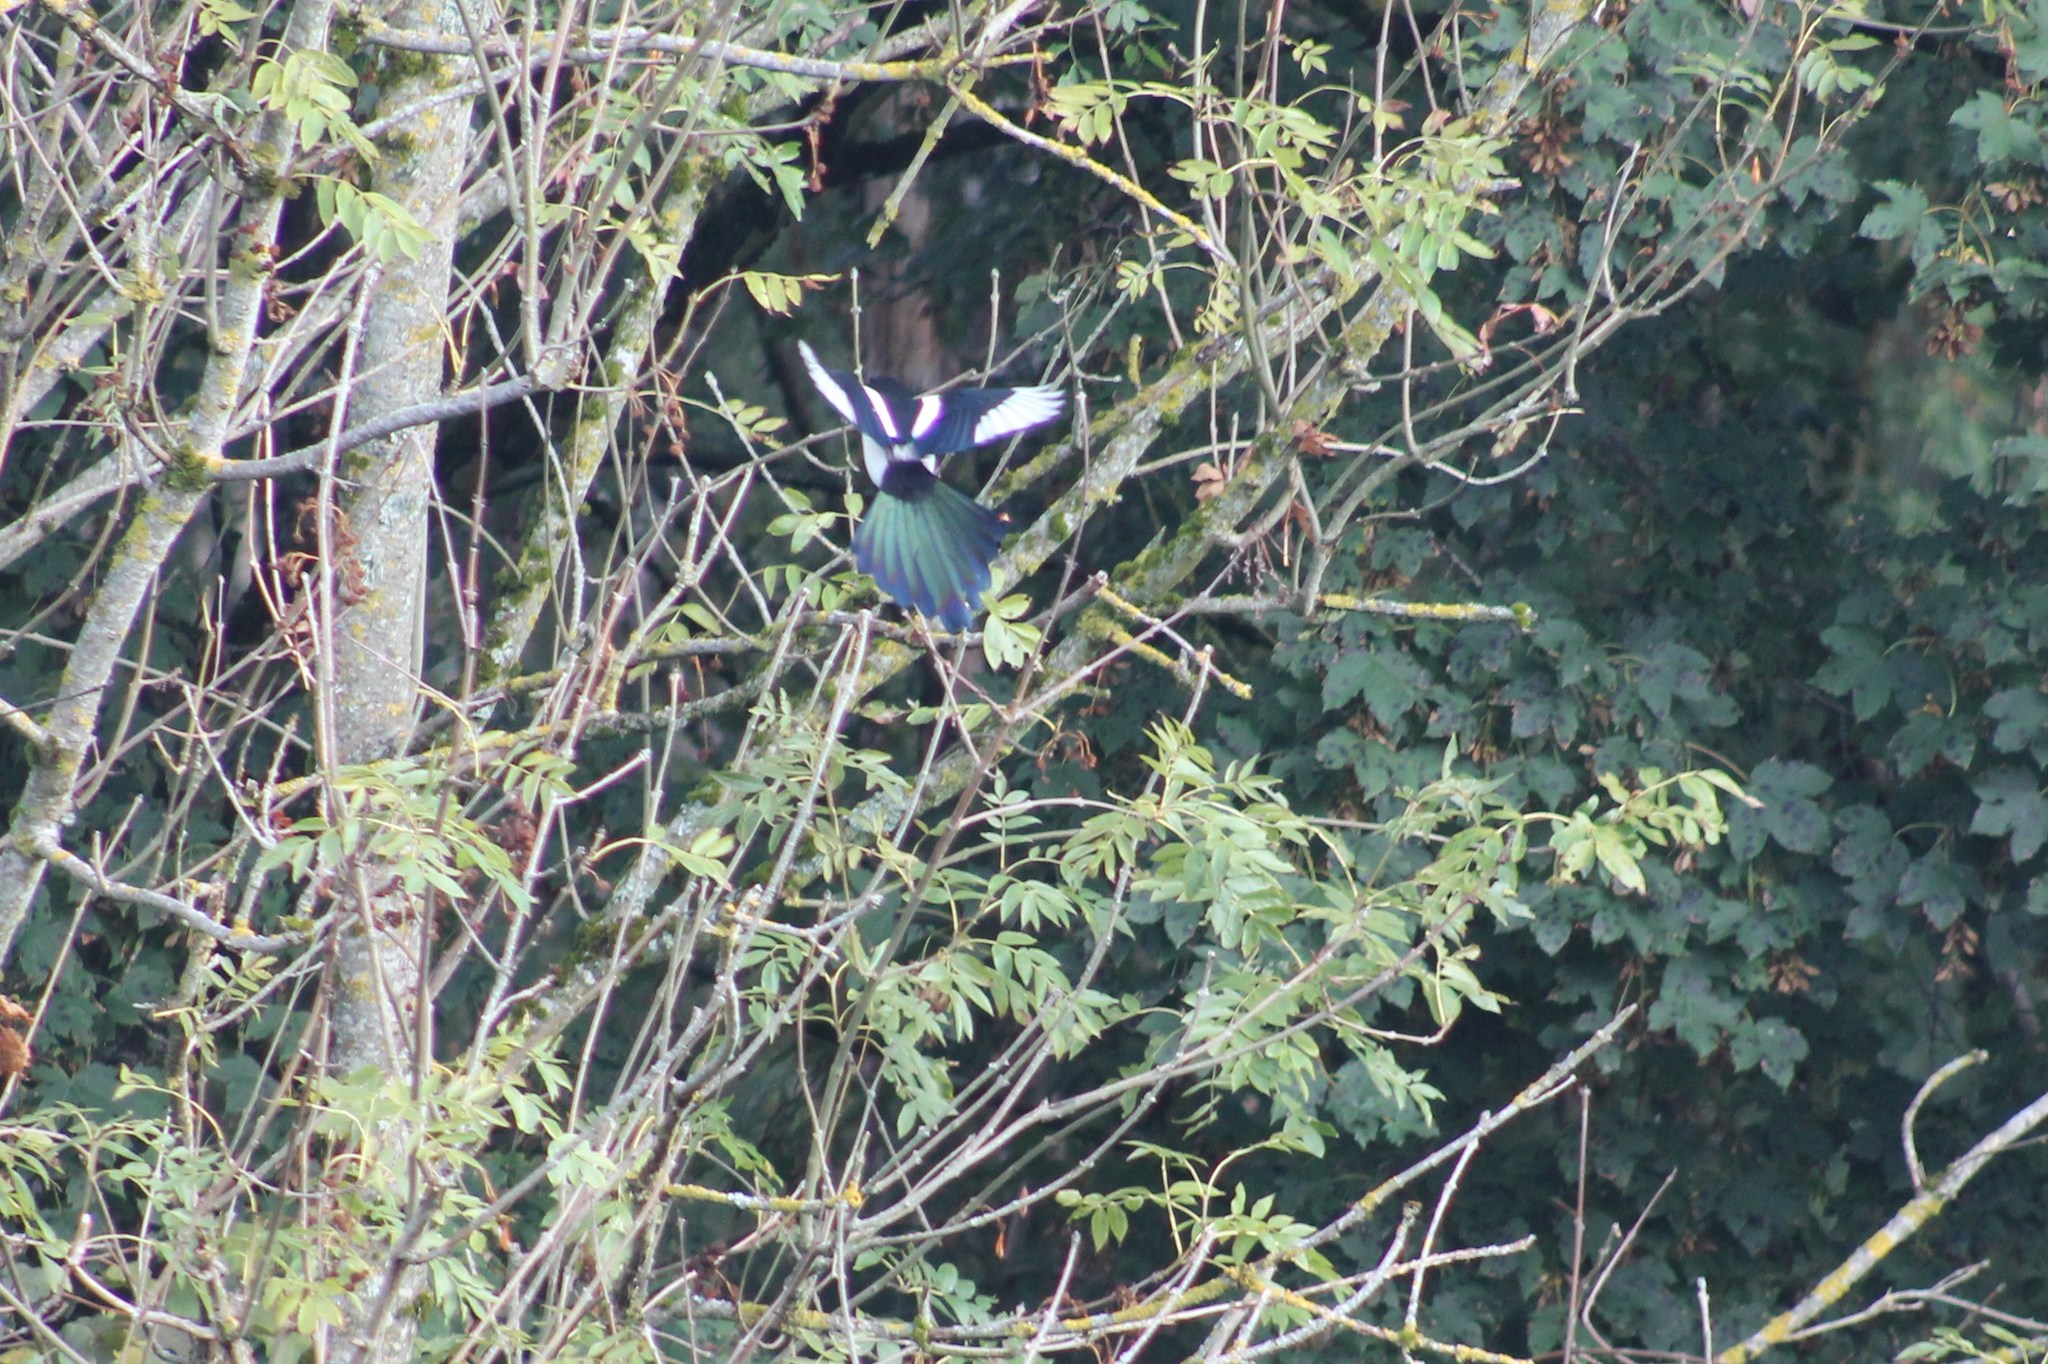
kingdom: Animalia
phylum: Chordata
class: Aves
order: Passeriformes
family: Corvidae
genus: Pica
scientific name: Pica pica
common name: Eurasian magpie
